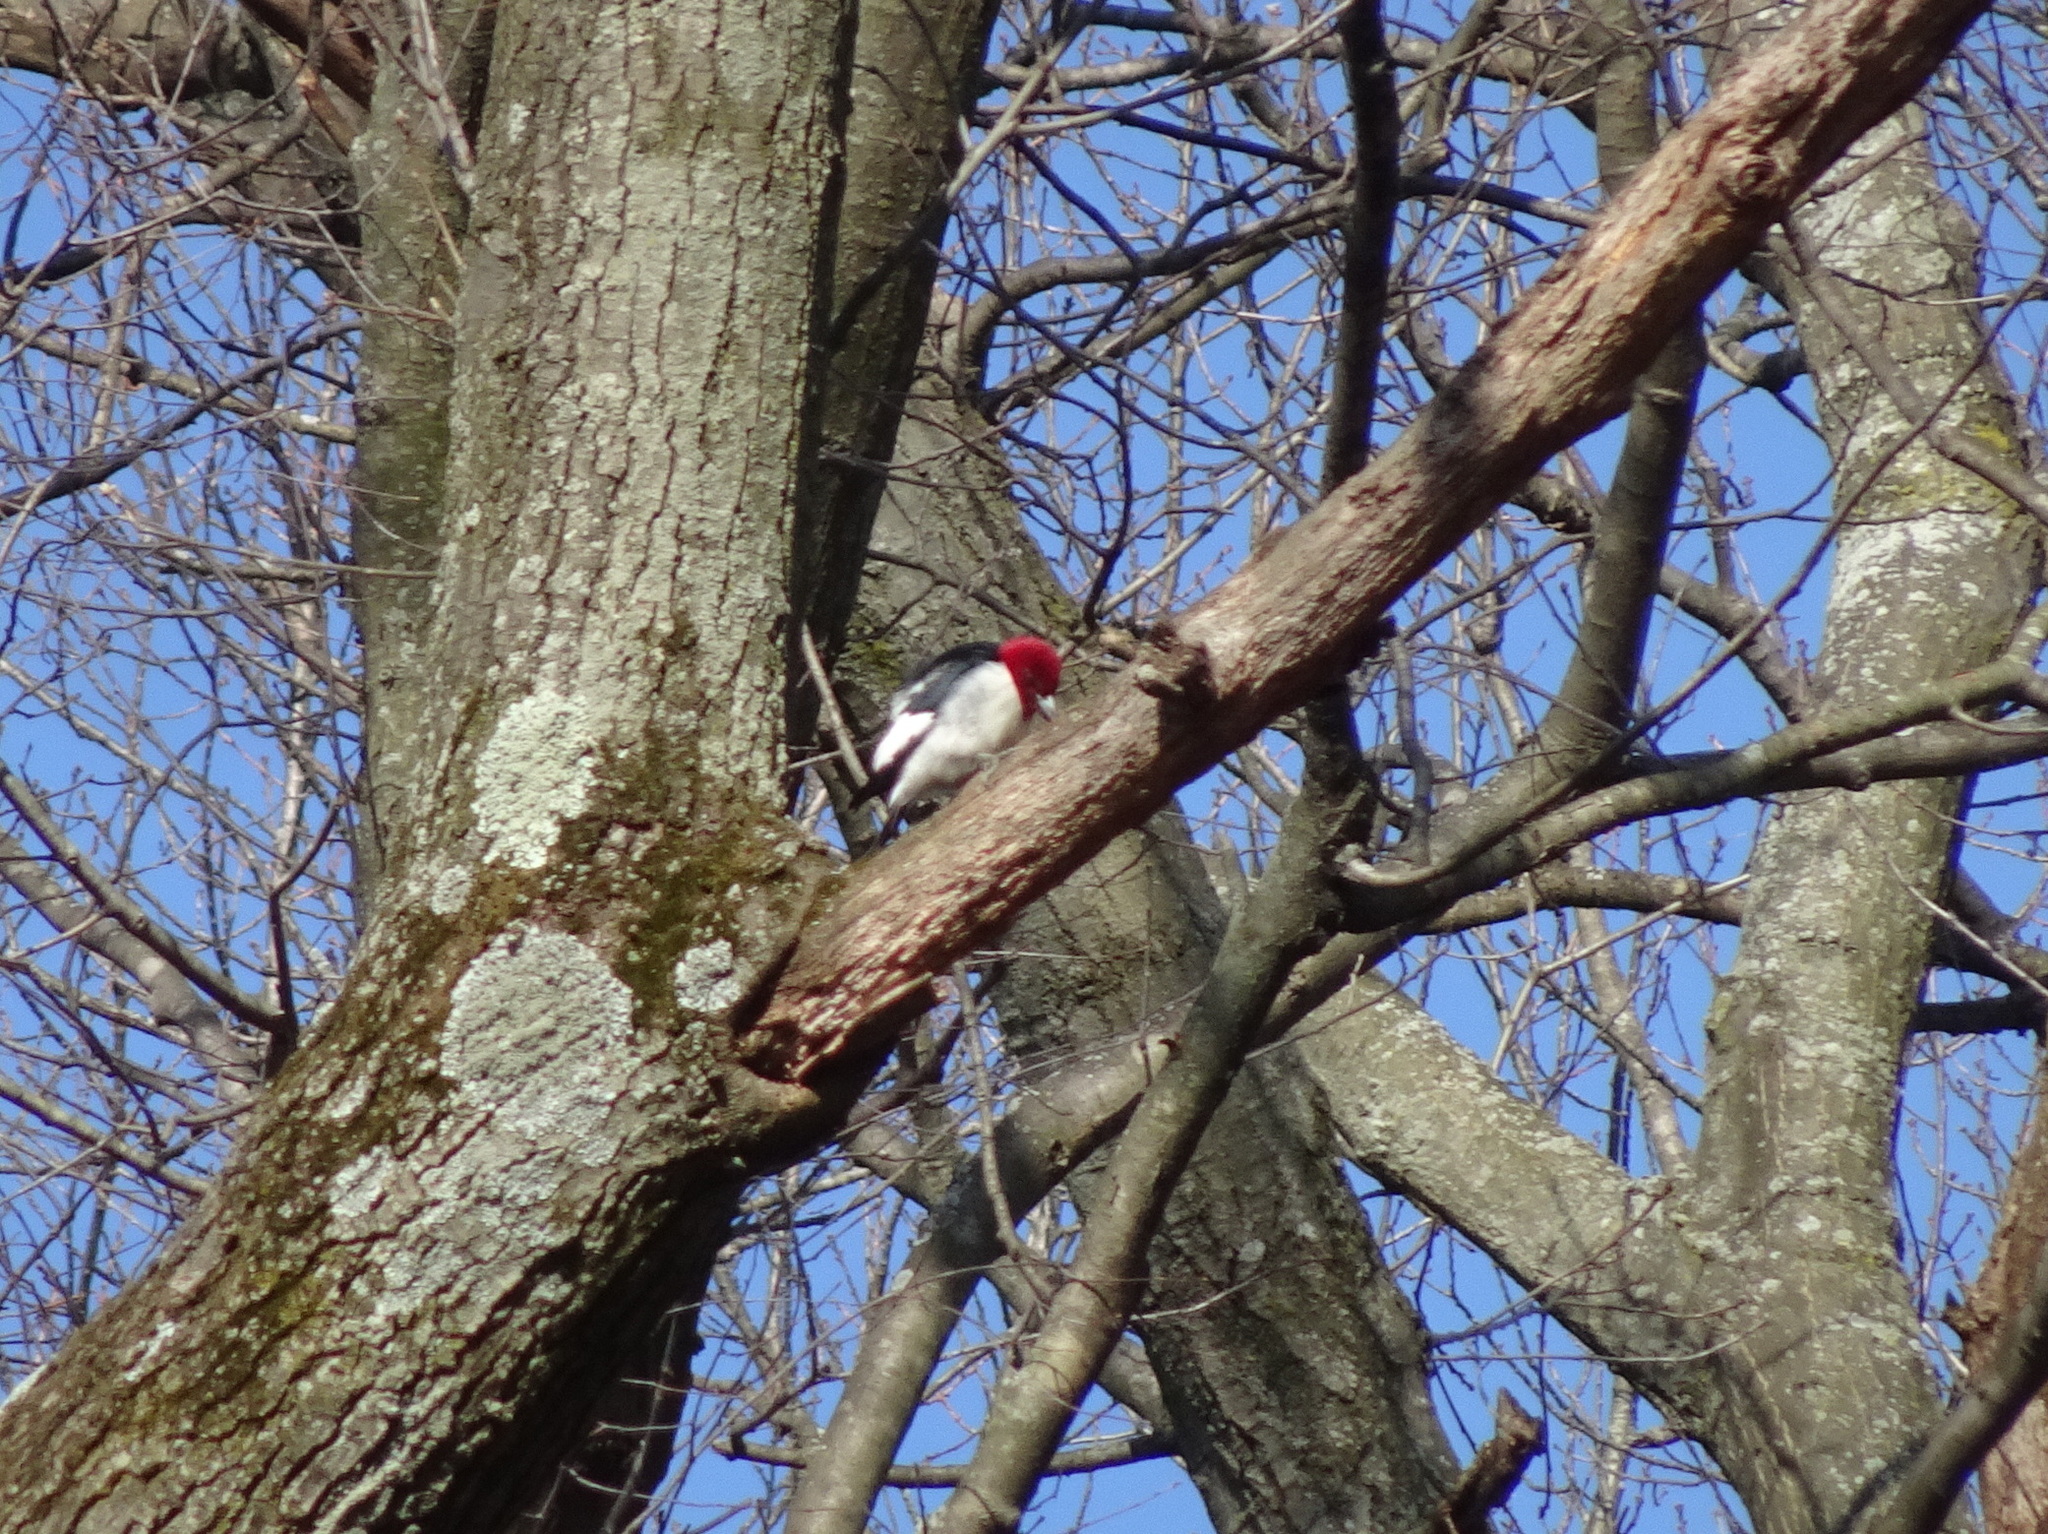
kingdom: Animalia
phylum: Chordata
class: Aves
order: Piciformes
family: Picidae
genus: Melanerpes
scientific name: Melanerpes erythrocephalus
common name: Red-headed woodpecker
